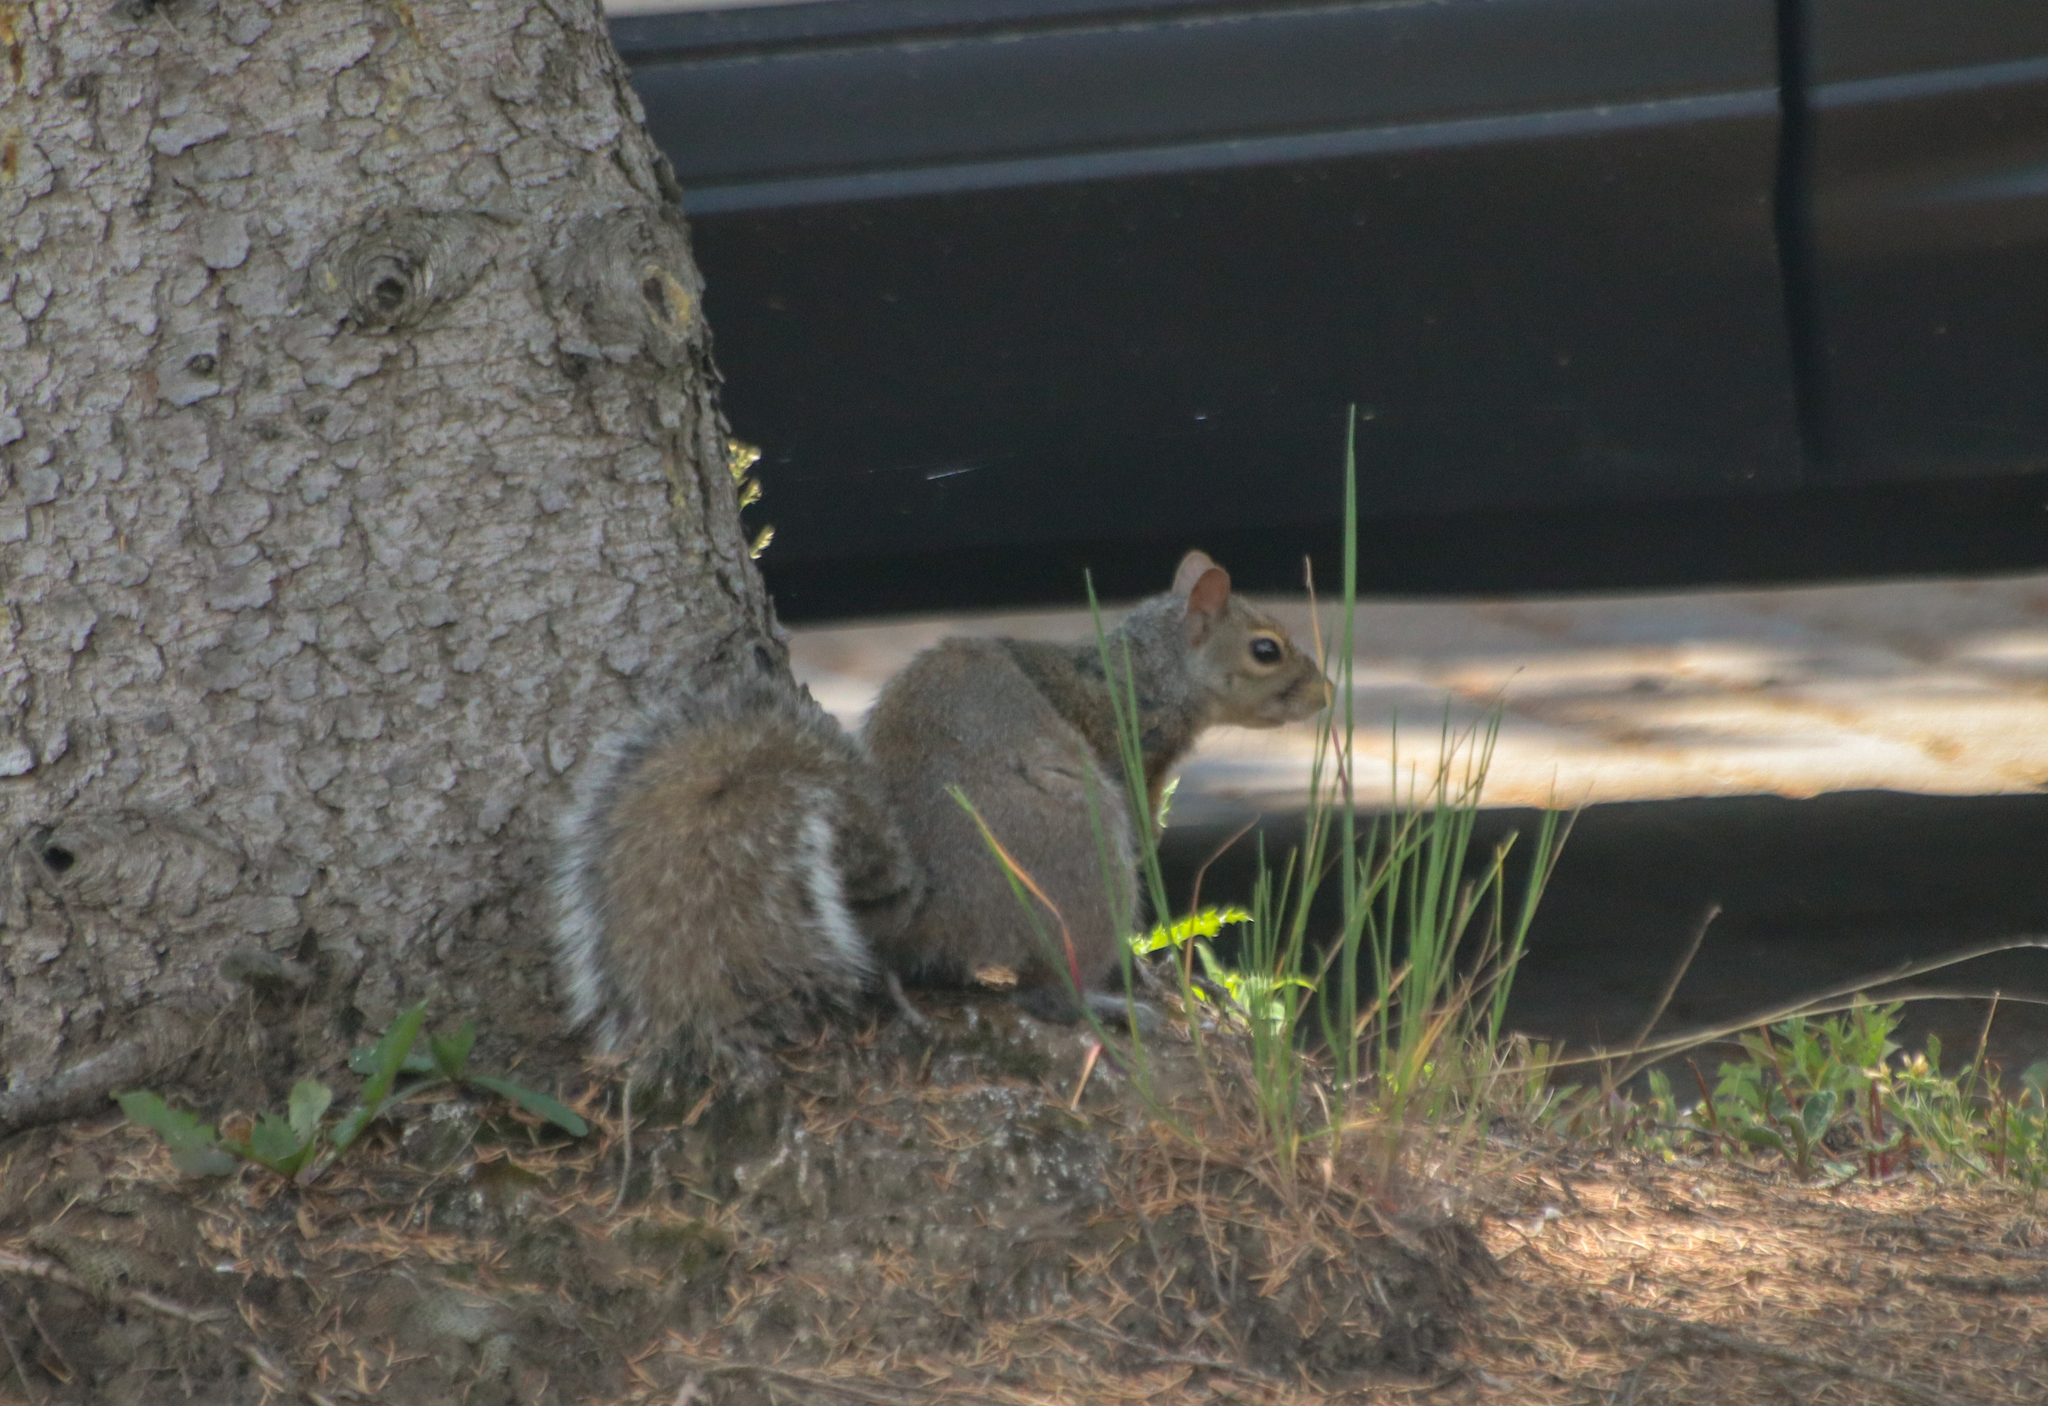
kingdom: Animalia
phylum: Chordata
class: Mammalia
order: Rodentia
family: Sciuridae
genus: Sciurus
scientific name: Sciurus carolinensis
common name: Eastern gray squirrel
